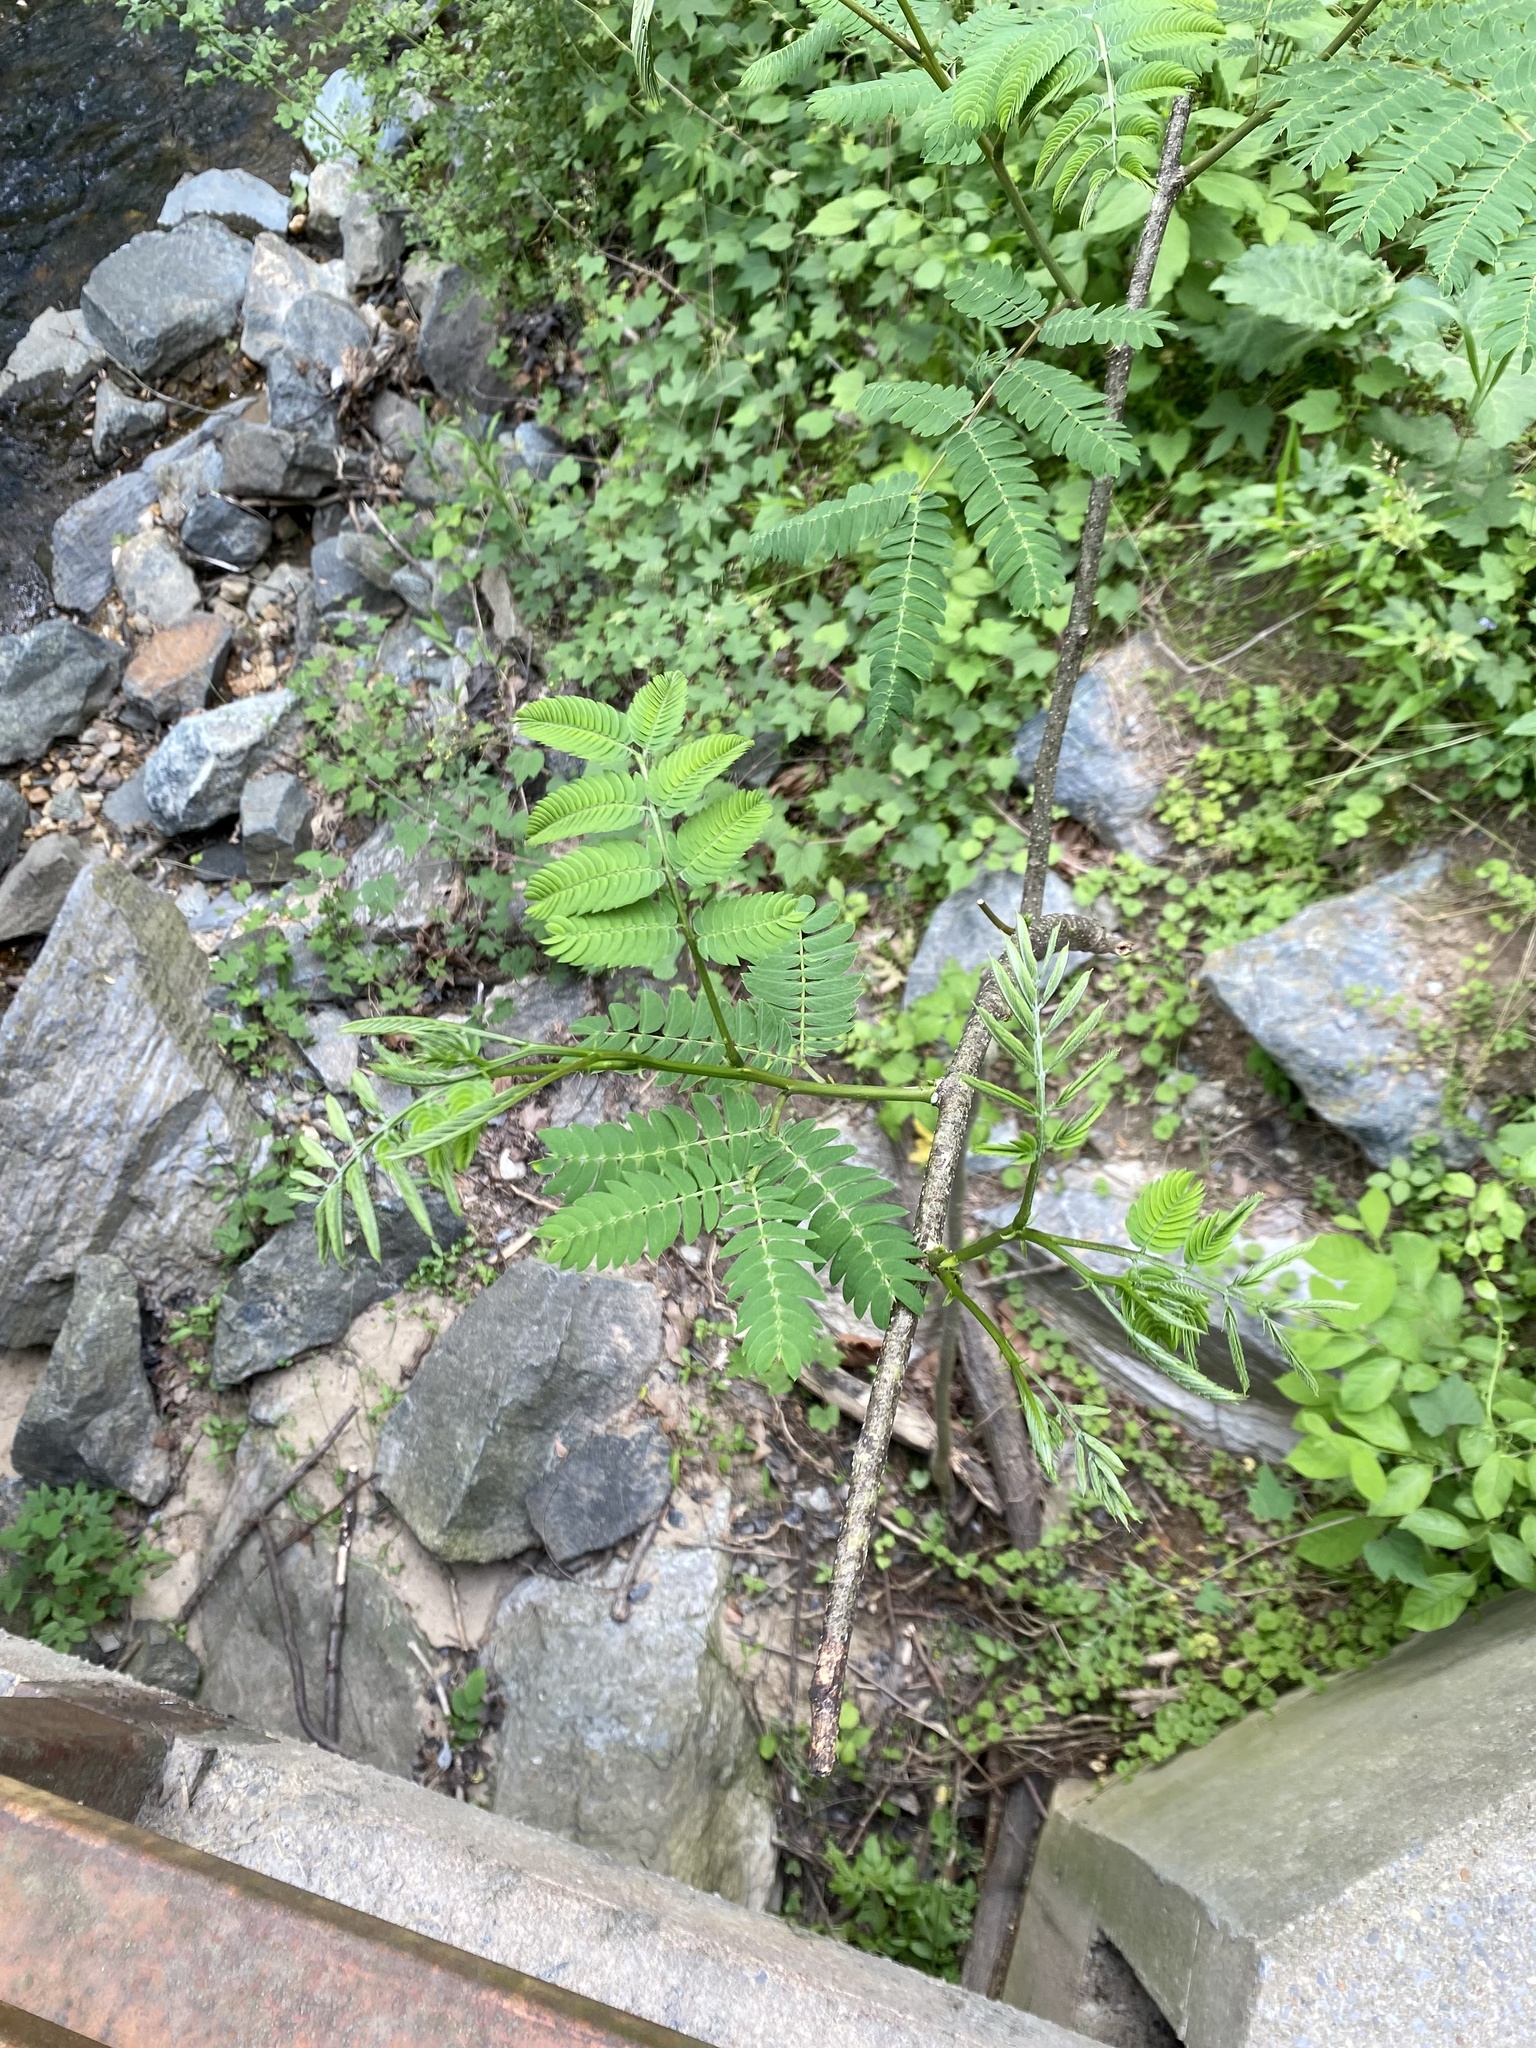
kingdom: Plantae
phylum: Tracheophyta
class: Magnoliopsida
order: Fabales
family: Fabaceae
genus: Albizia
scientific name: Albizia julibrissin
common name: Silktree
